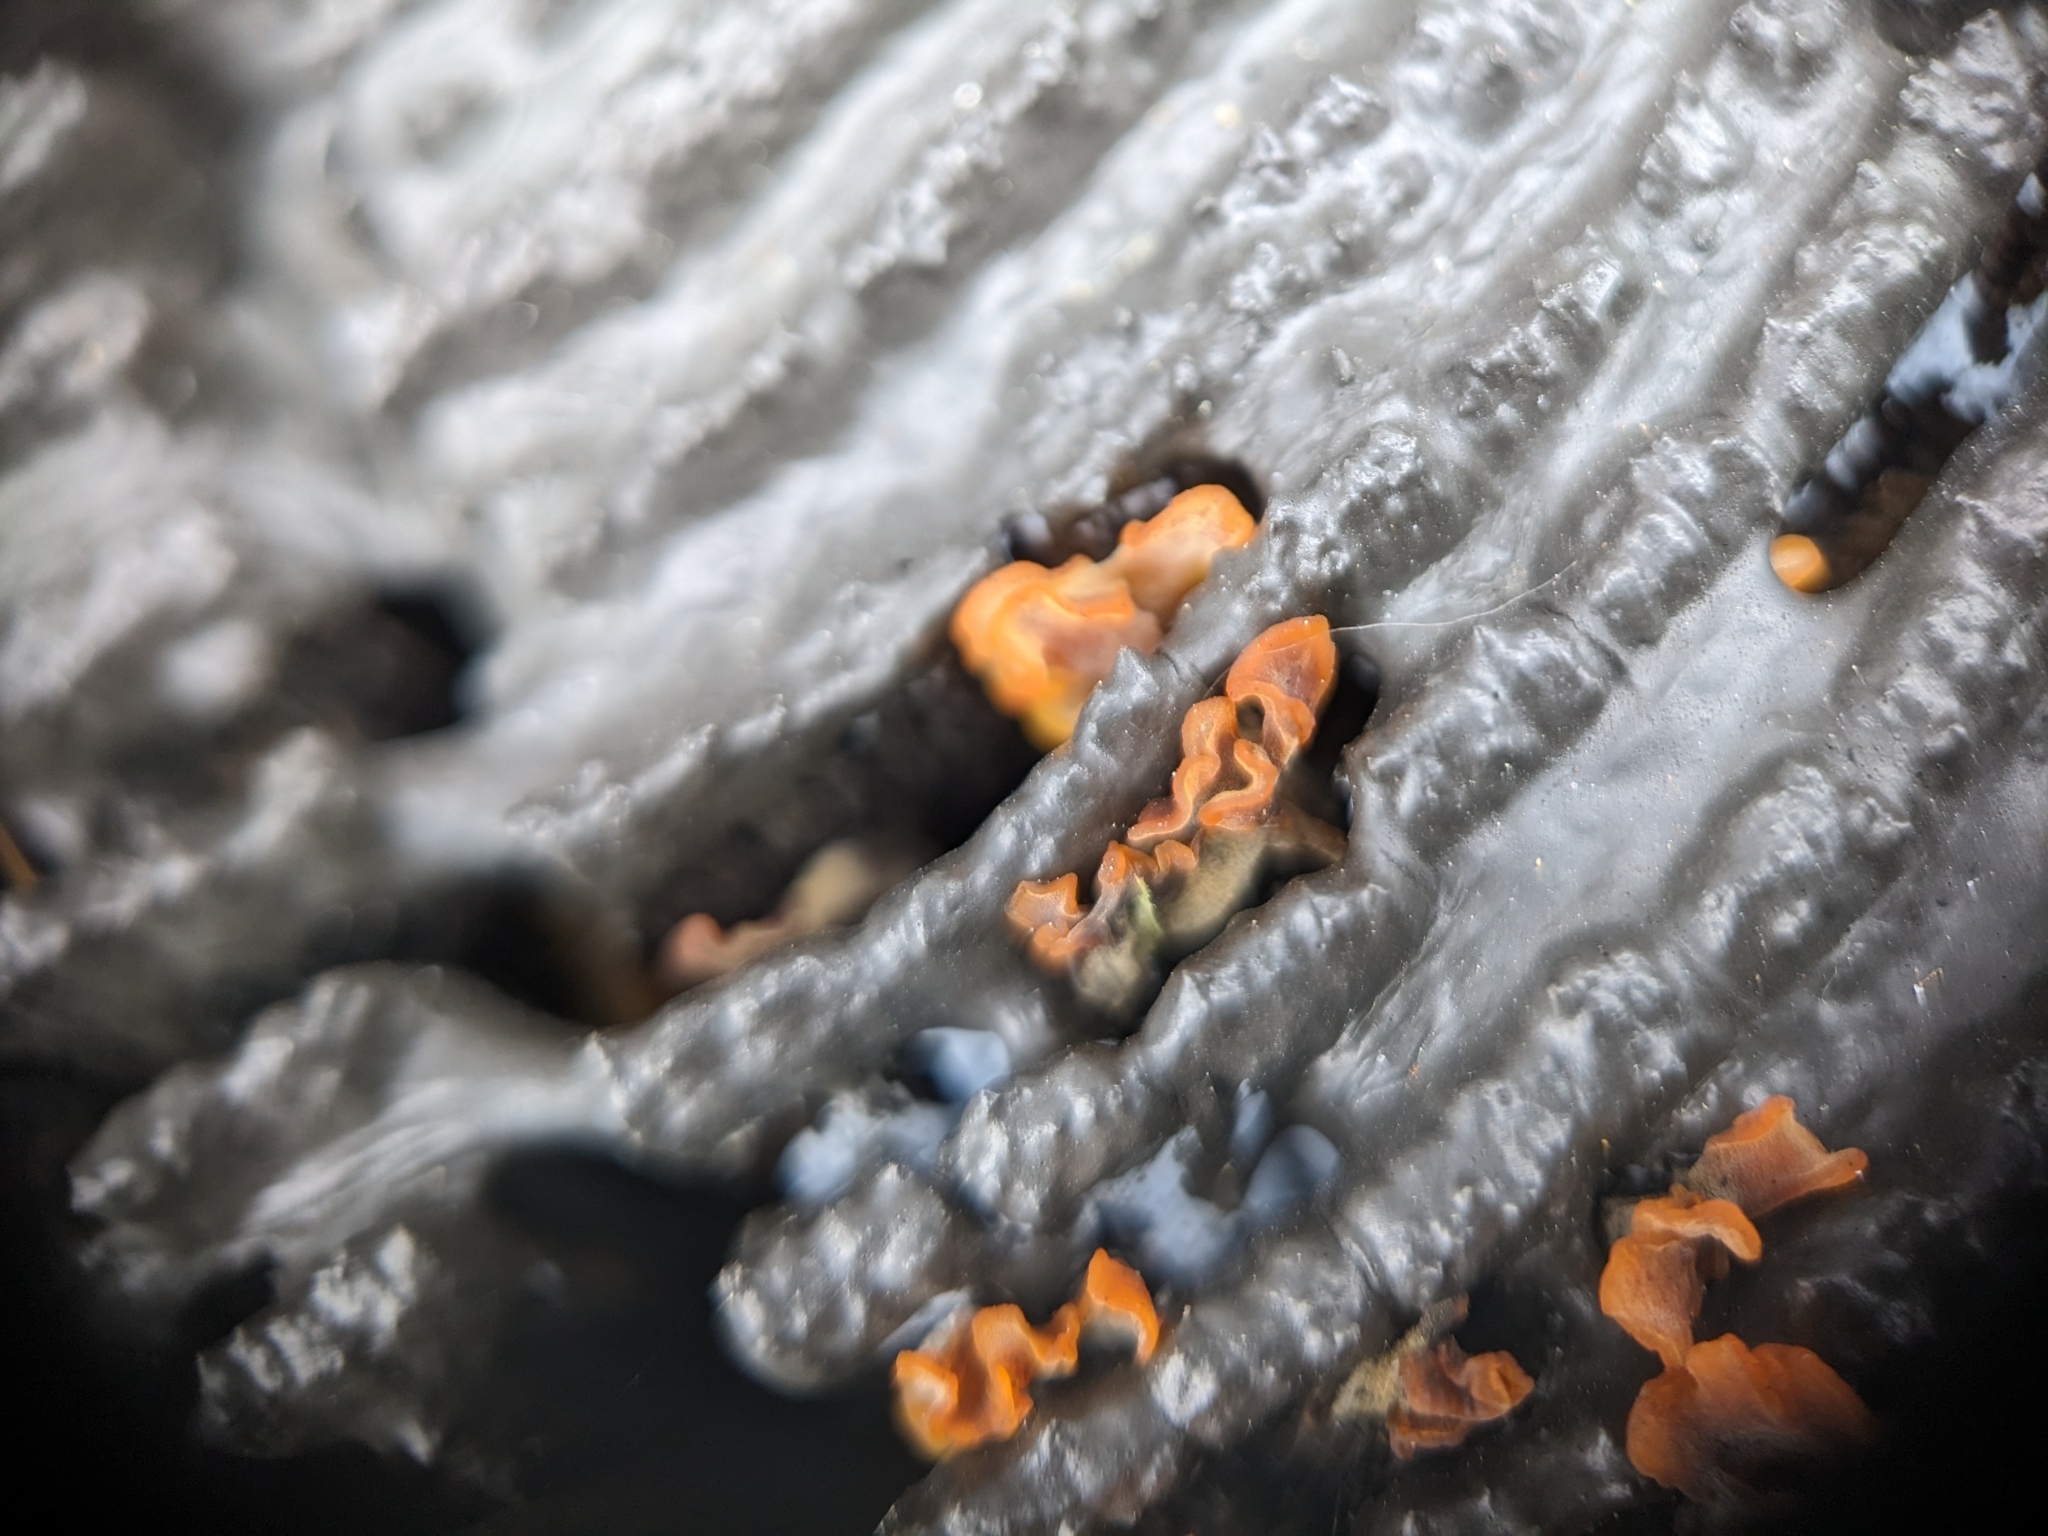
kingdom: Fungi
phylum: Basidiomycota
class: Dacrymycetes
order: Dacrymycetales
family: Dacrymycetaceae
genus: Dacrymyces
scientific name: Dacrymyces spathularius
